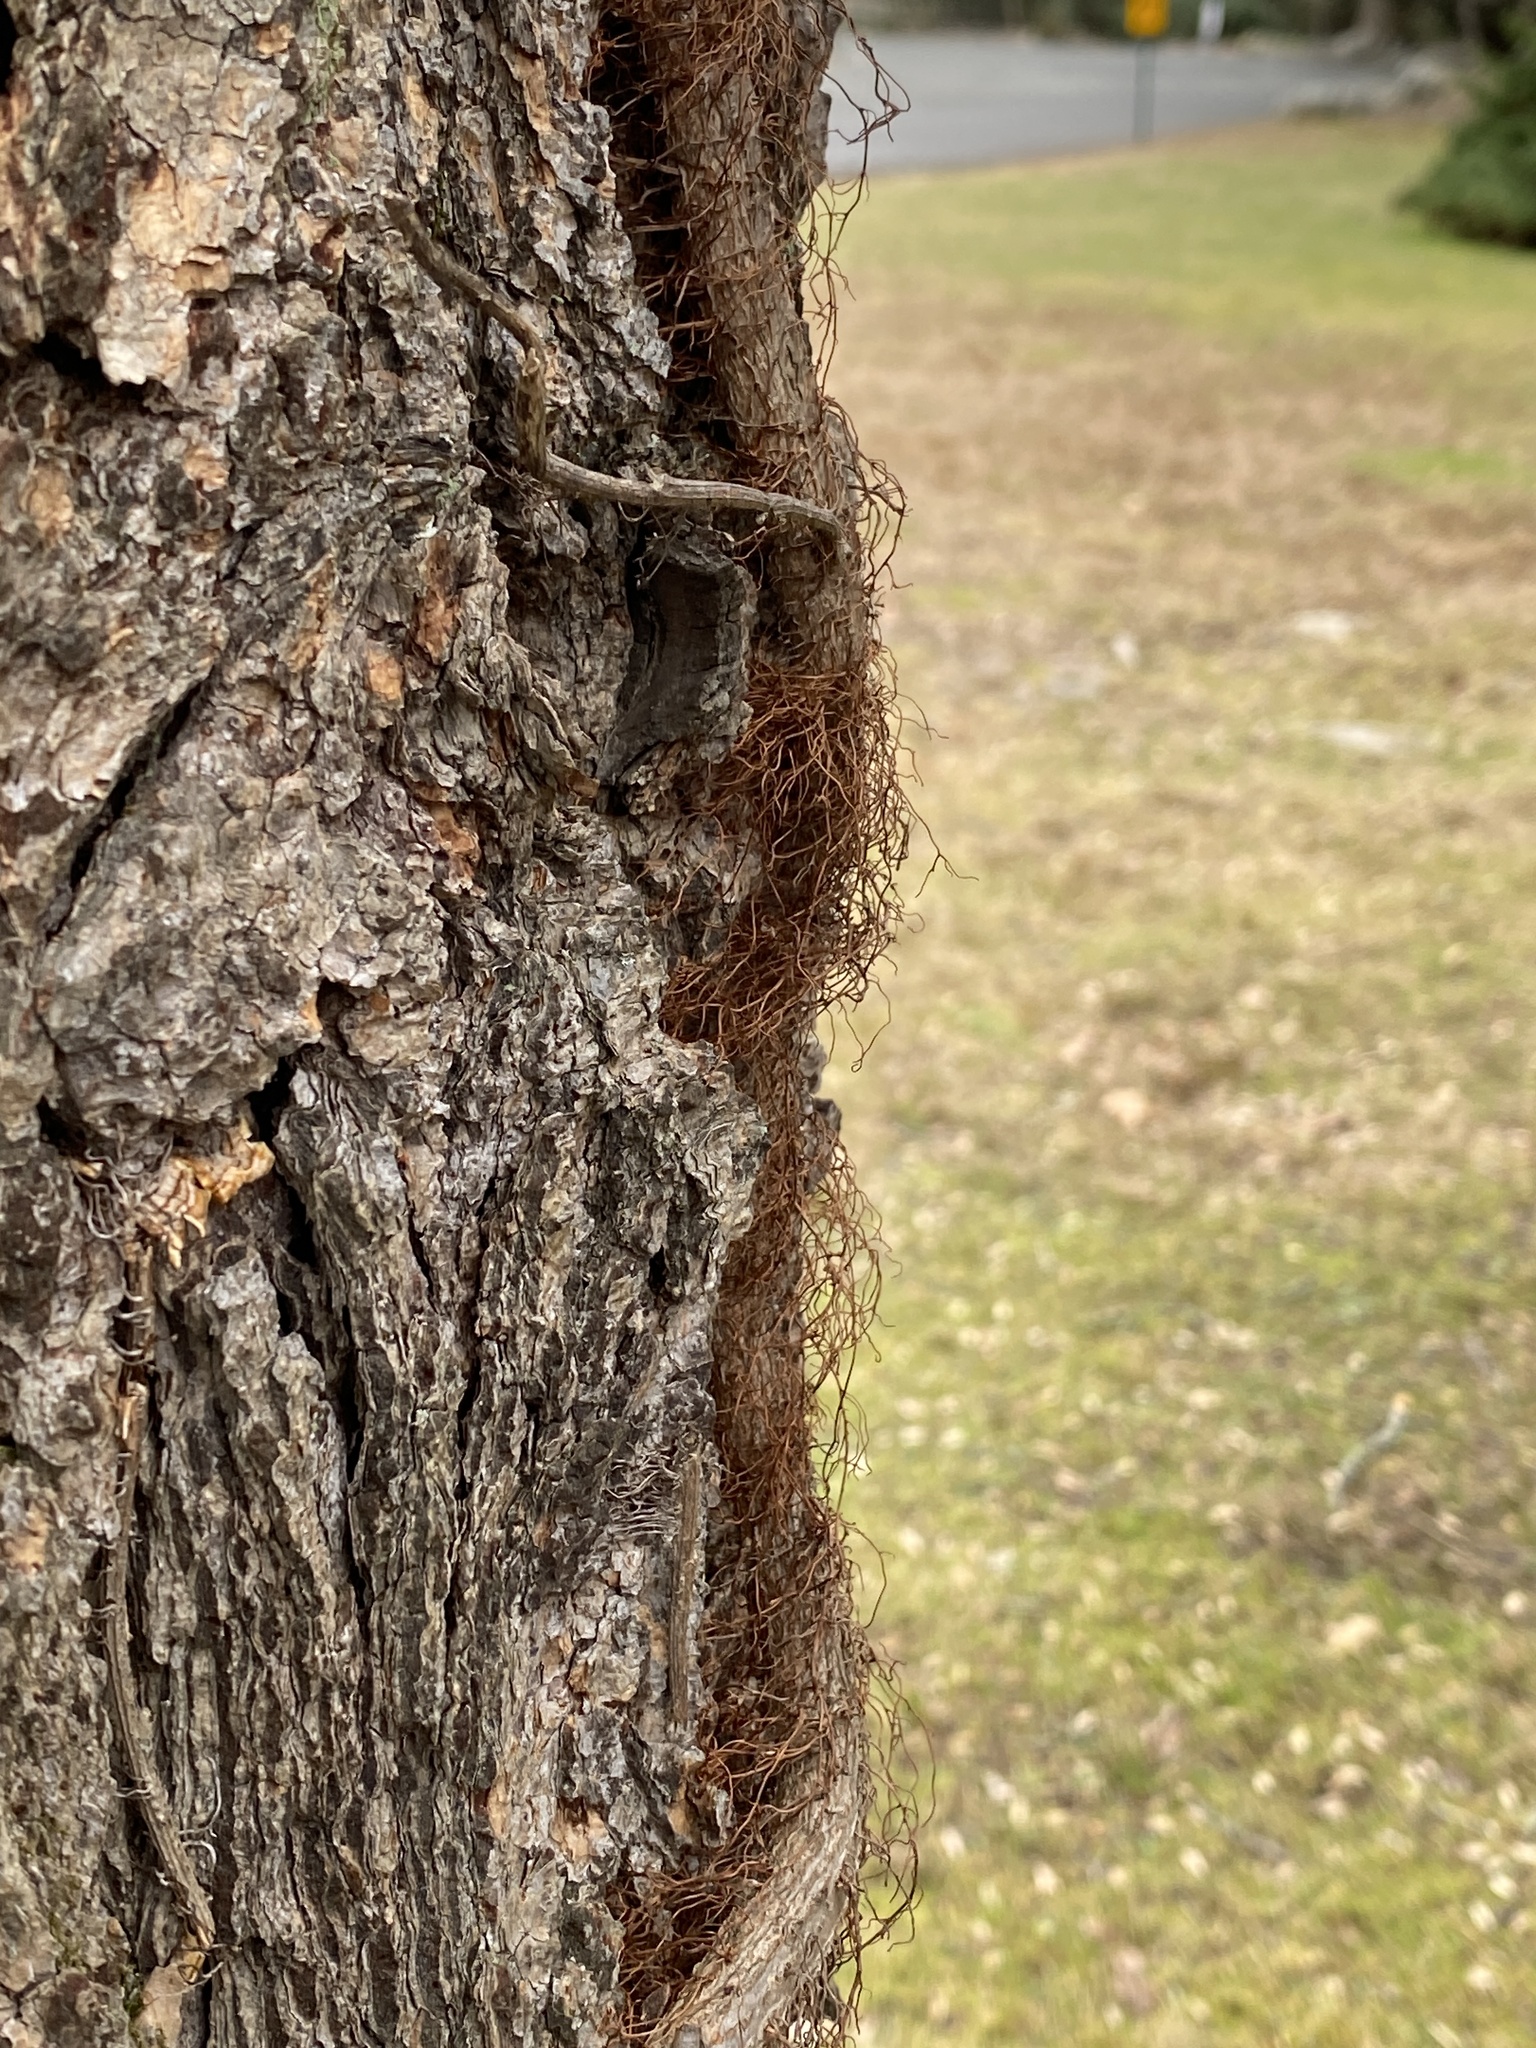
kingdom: Plantae
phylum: Tracheophyta
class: Magnoliopsida
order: Sapindales
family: Anacardiaceae
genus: Toxicodendron
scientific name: Toxicodendron radicans
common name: Poison ivy
